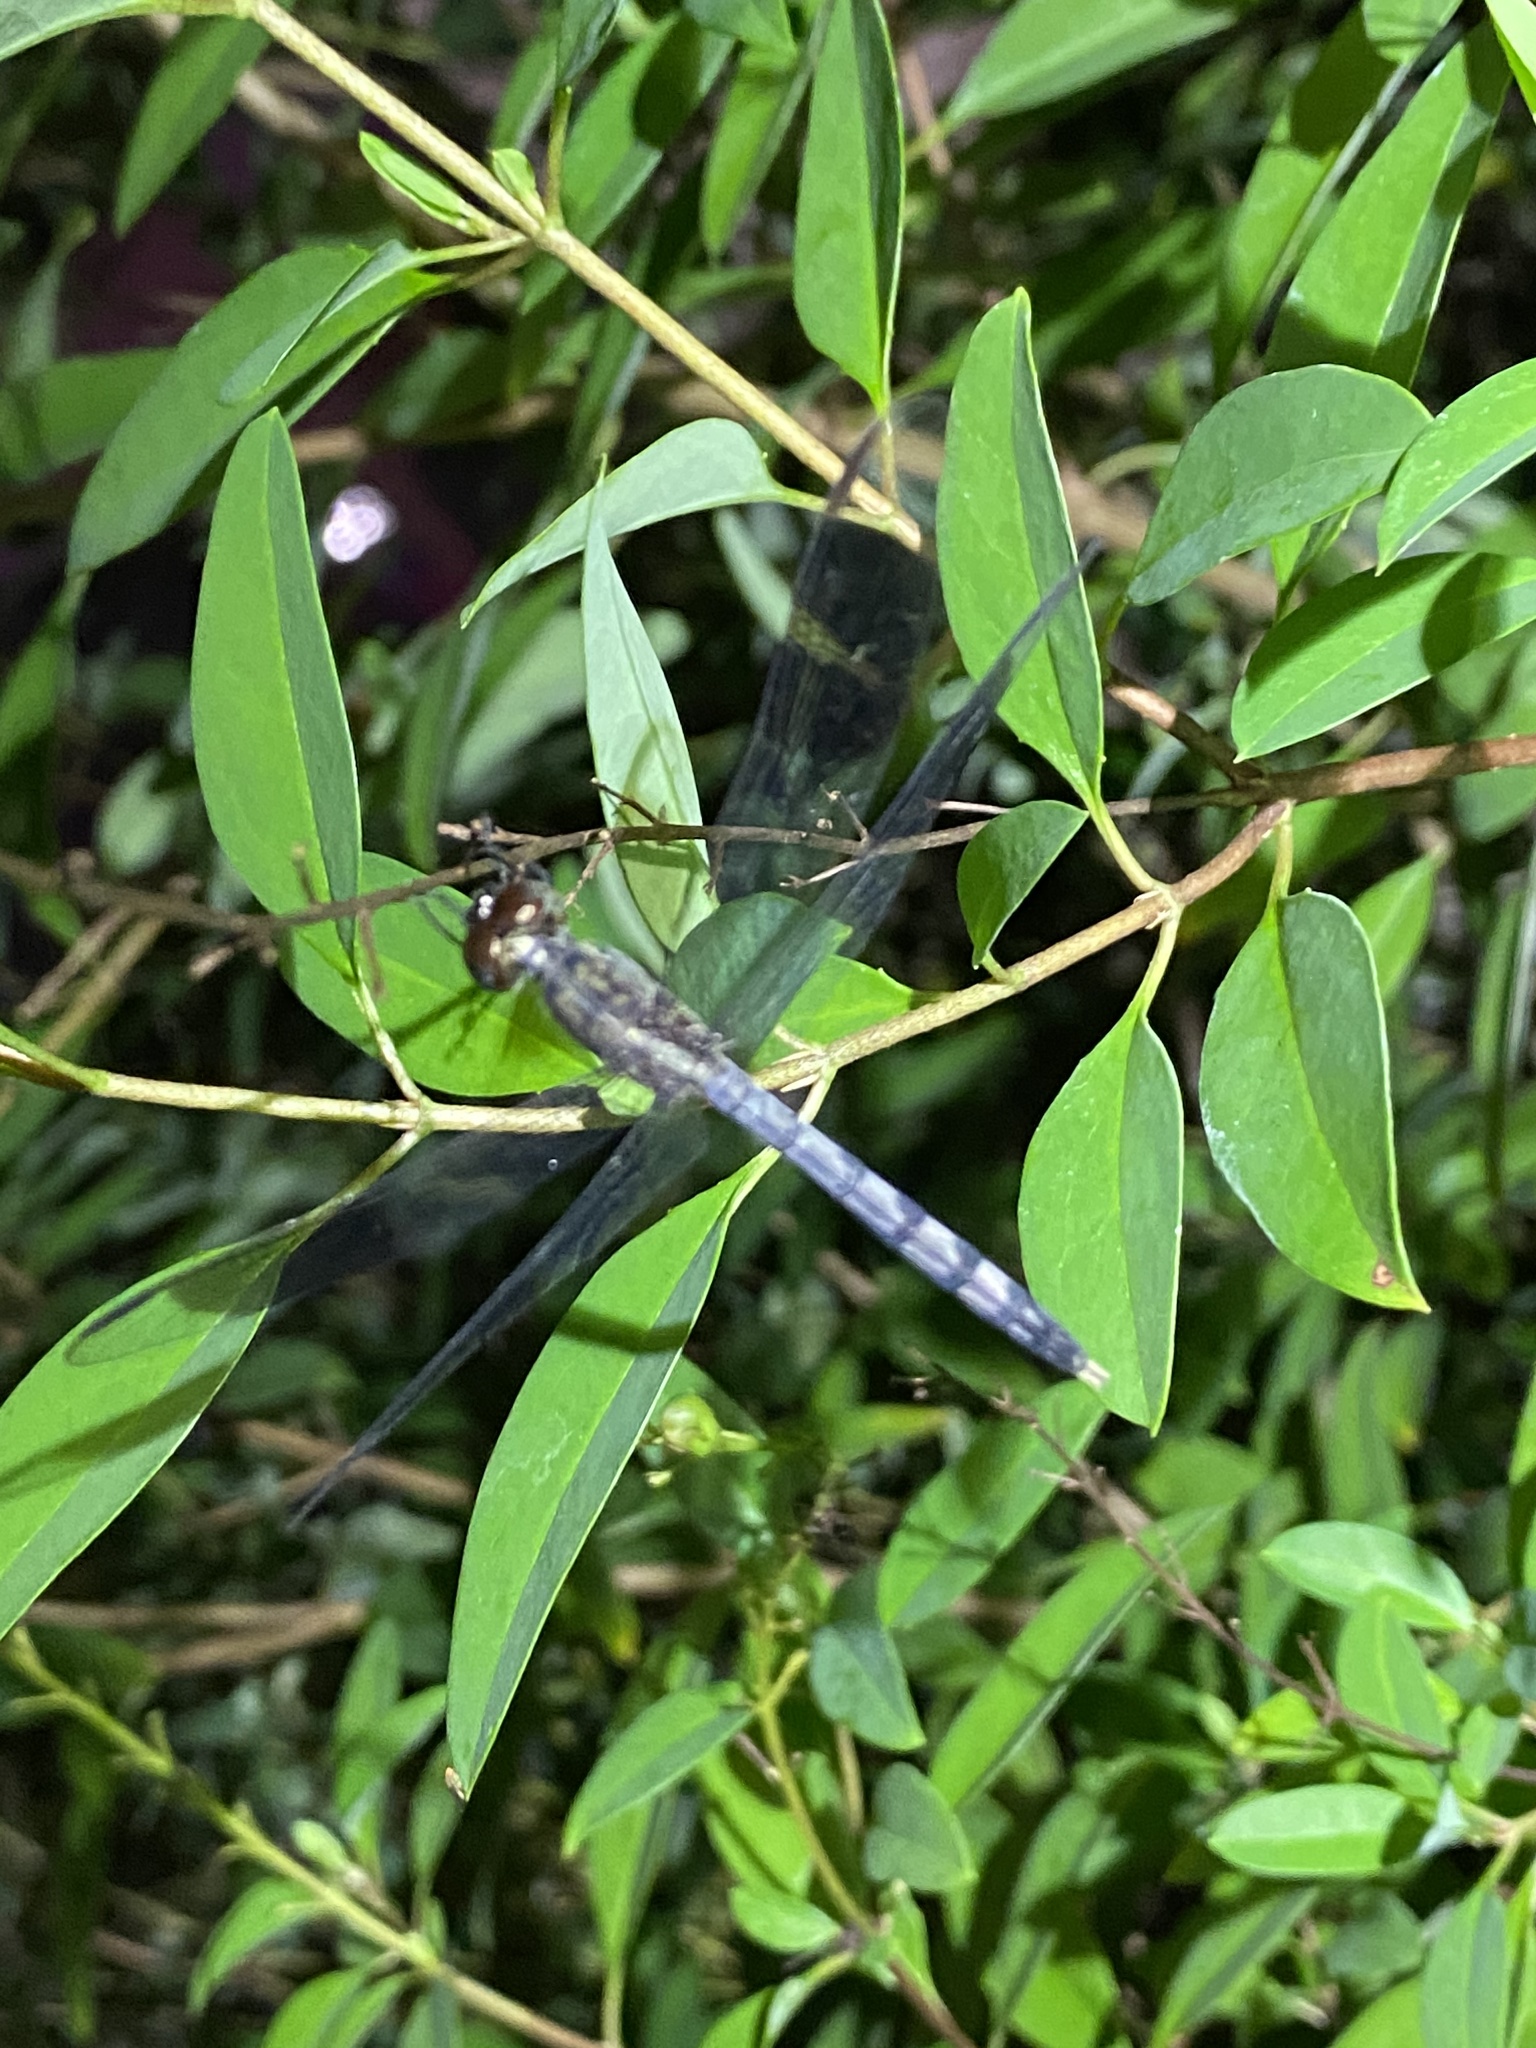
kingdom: Animalia
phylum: Arthropoda
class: Insecta
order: Odonata
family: Libellulidae
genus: Erythrodiplax
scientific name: Erythrodiplax umbrata
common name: Band-winged dragonlet
